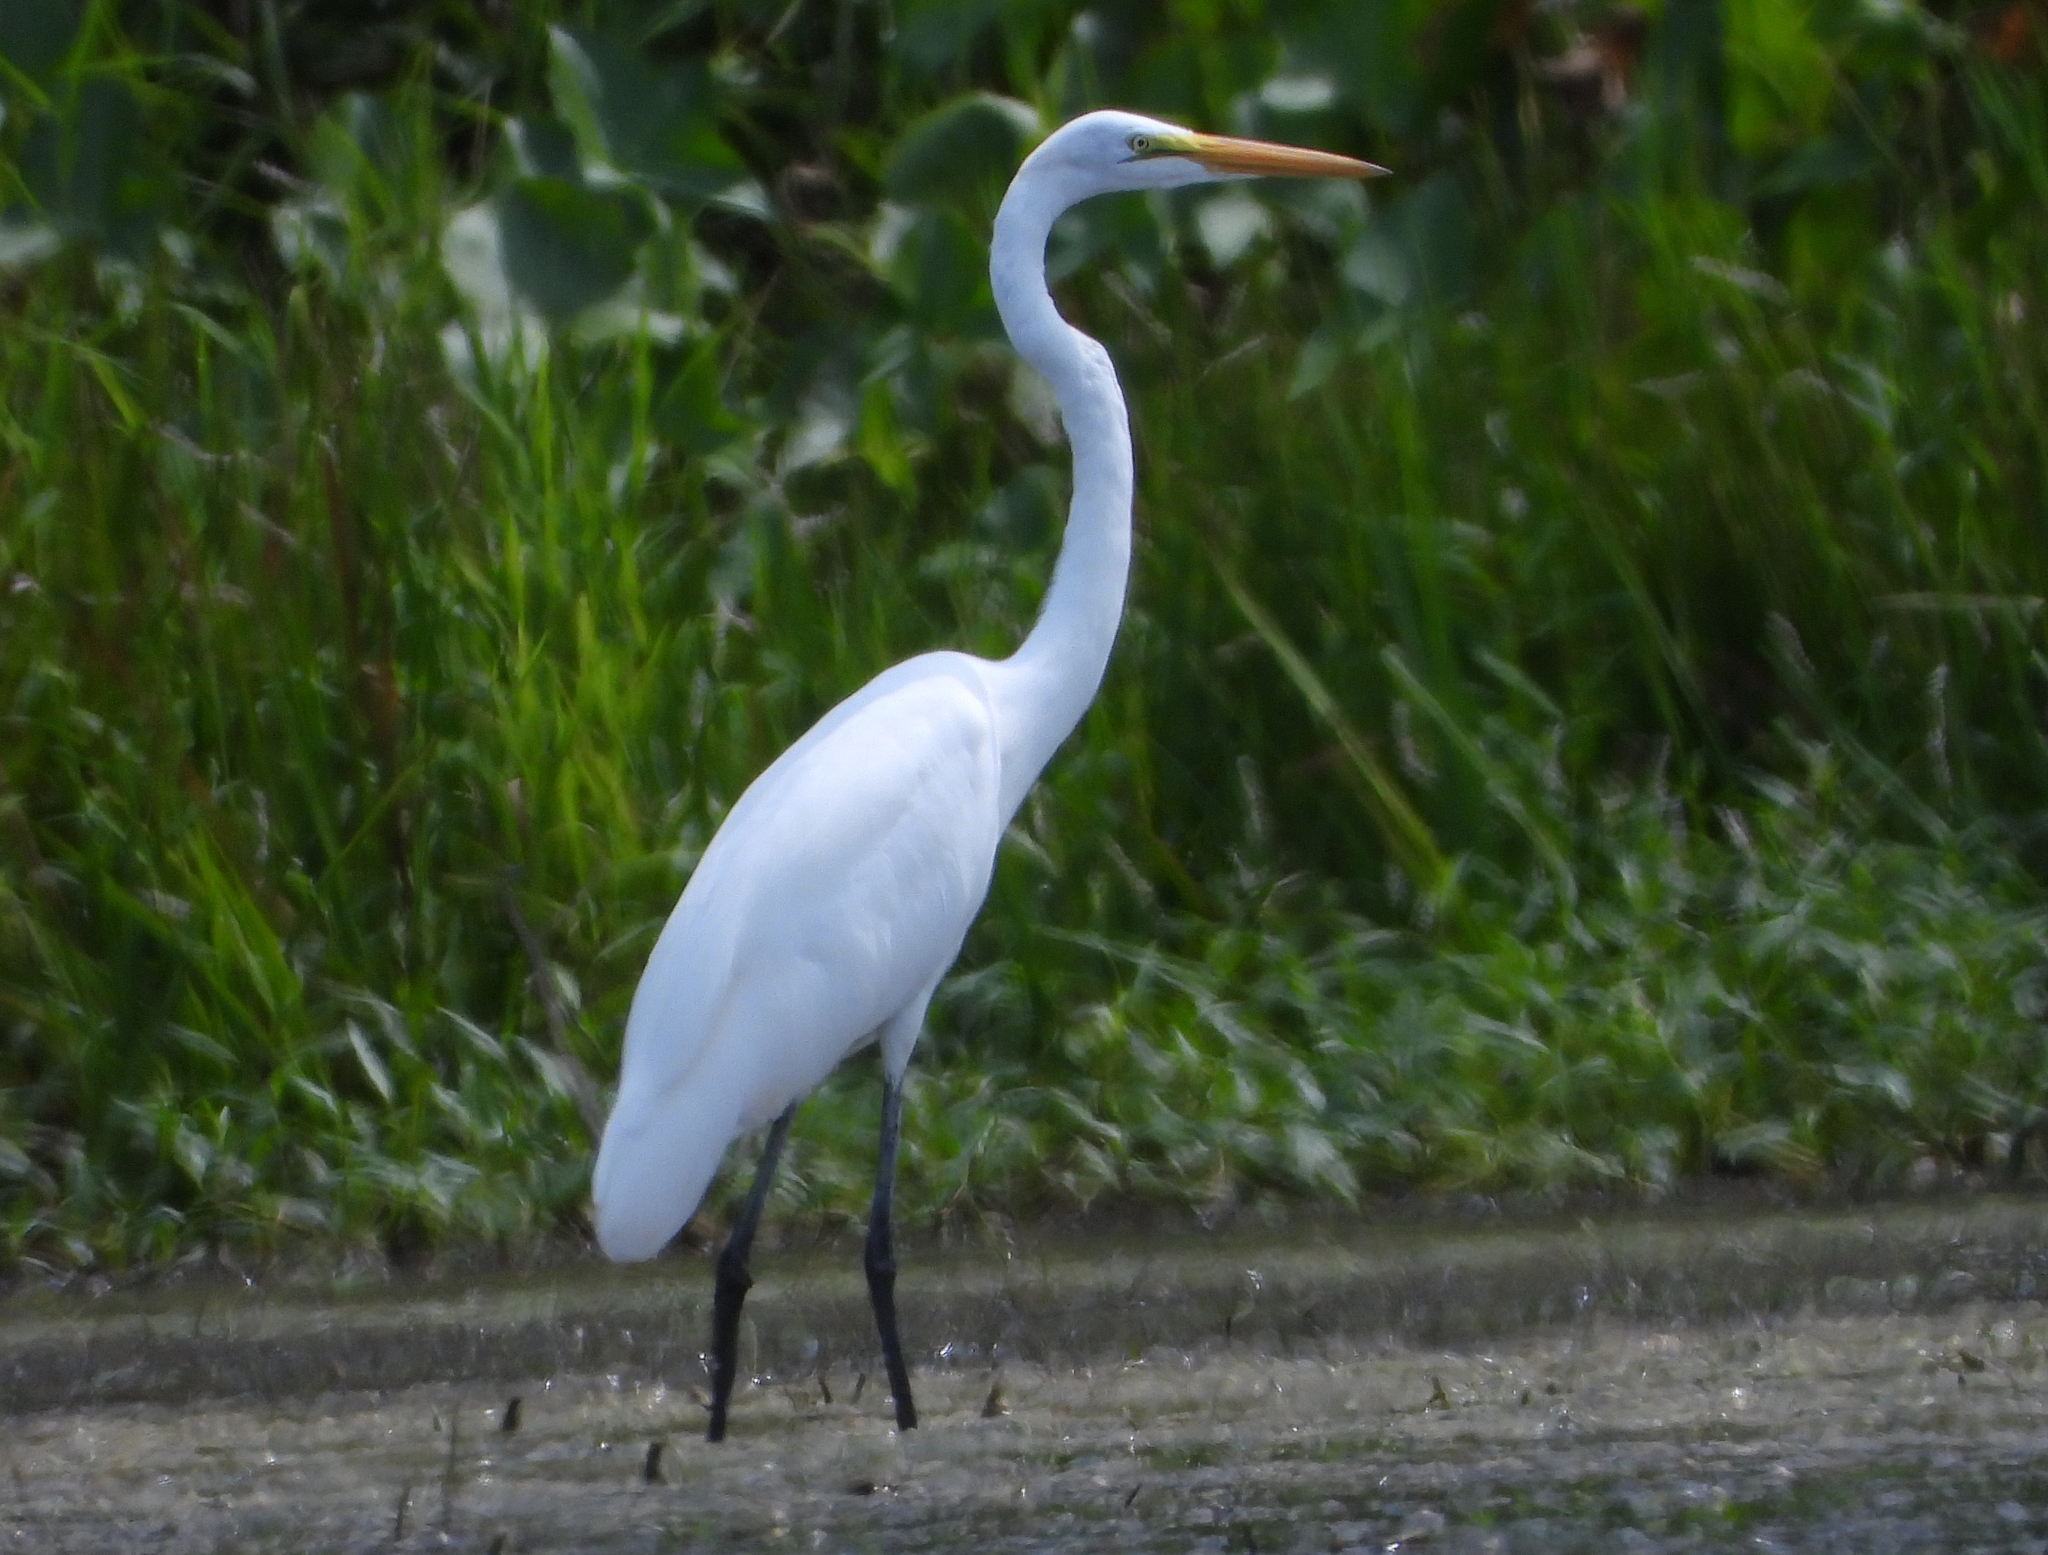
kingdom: Animalia
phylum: Chordata
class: Aves
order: Pelecaniformes
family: Ardeidae
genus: Ardea
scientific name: Ardea alba
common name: Great egret
